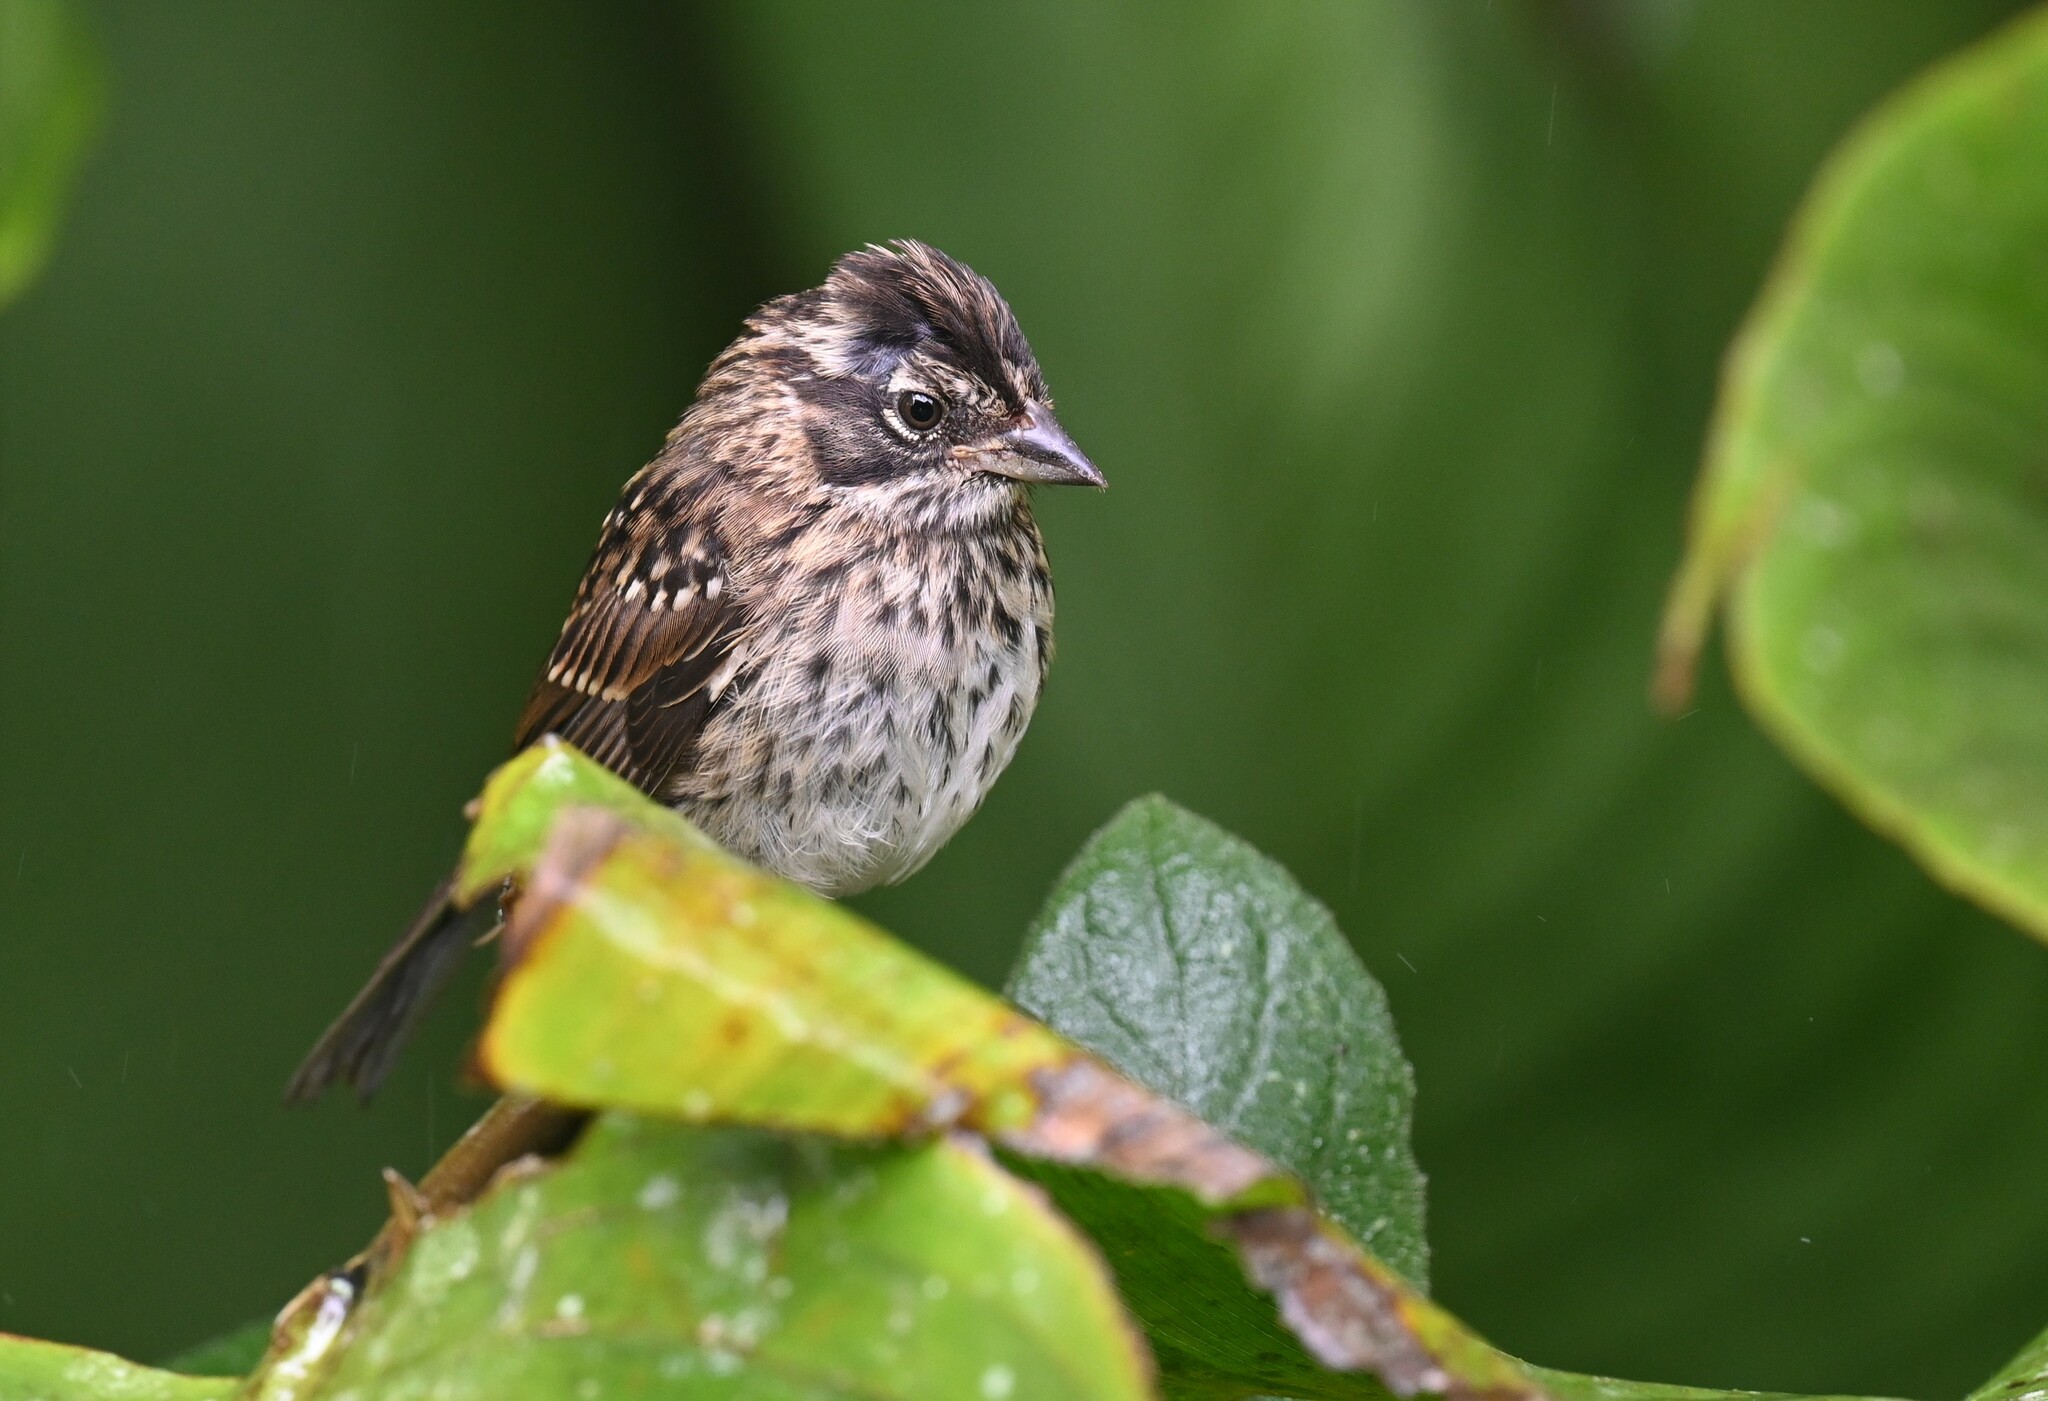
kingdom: Animalia
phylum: Chordata
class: Aves
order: Passeriformes
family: Passerellidae
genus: Zonotrichia
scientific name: Zonotrichia capensis
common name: Rufous-collared sparrow
